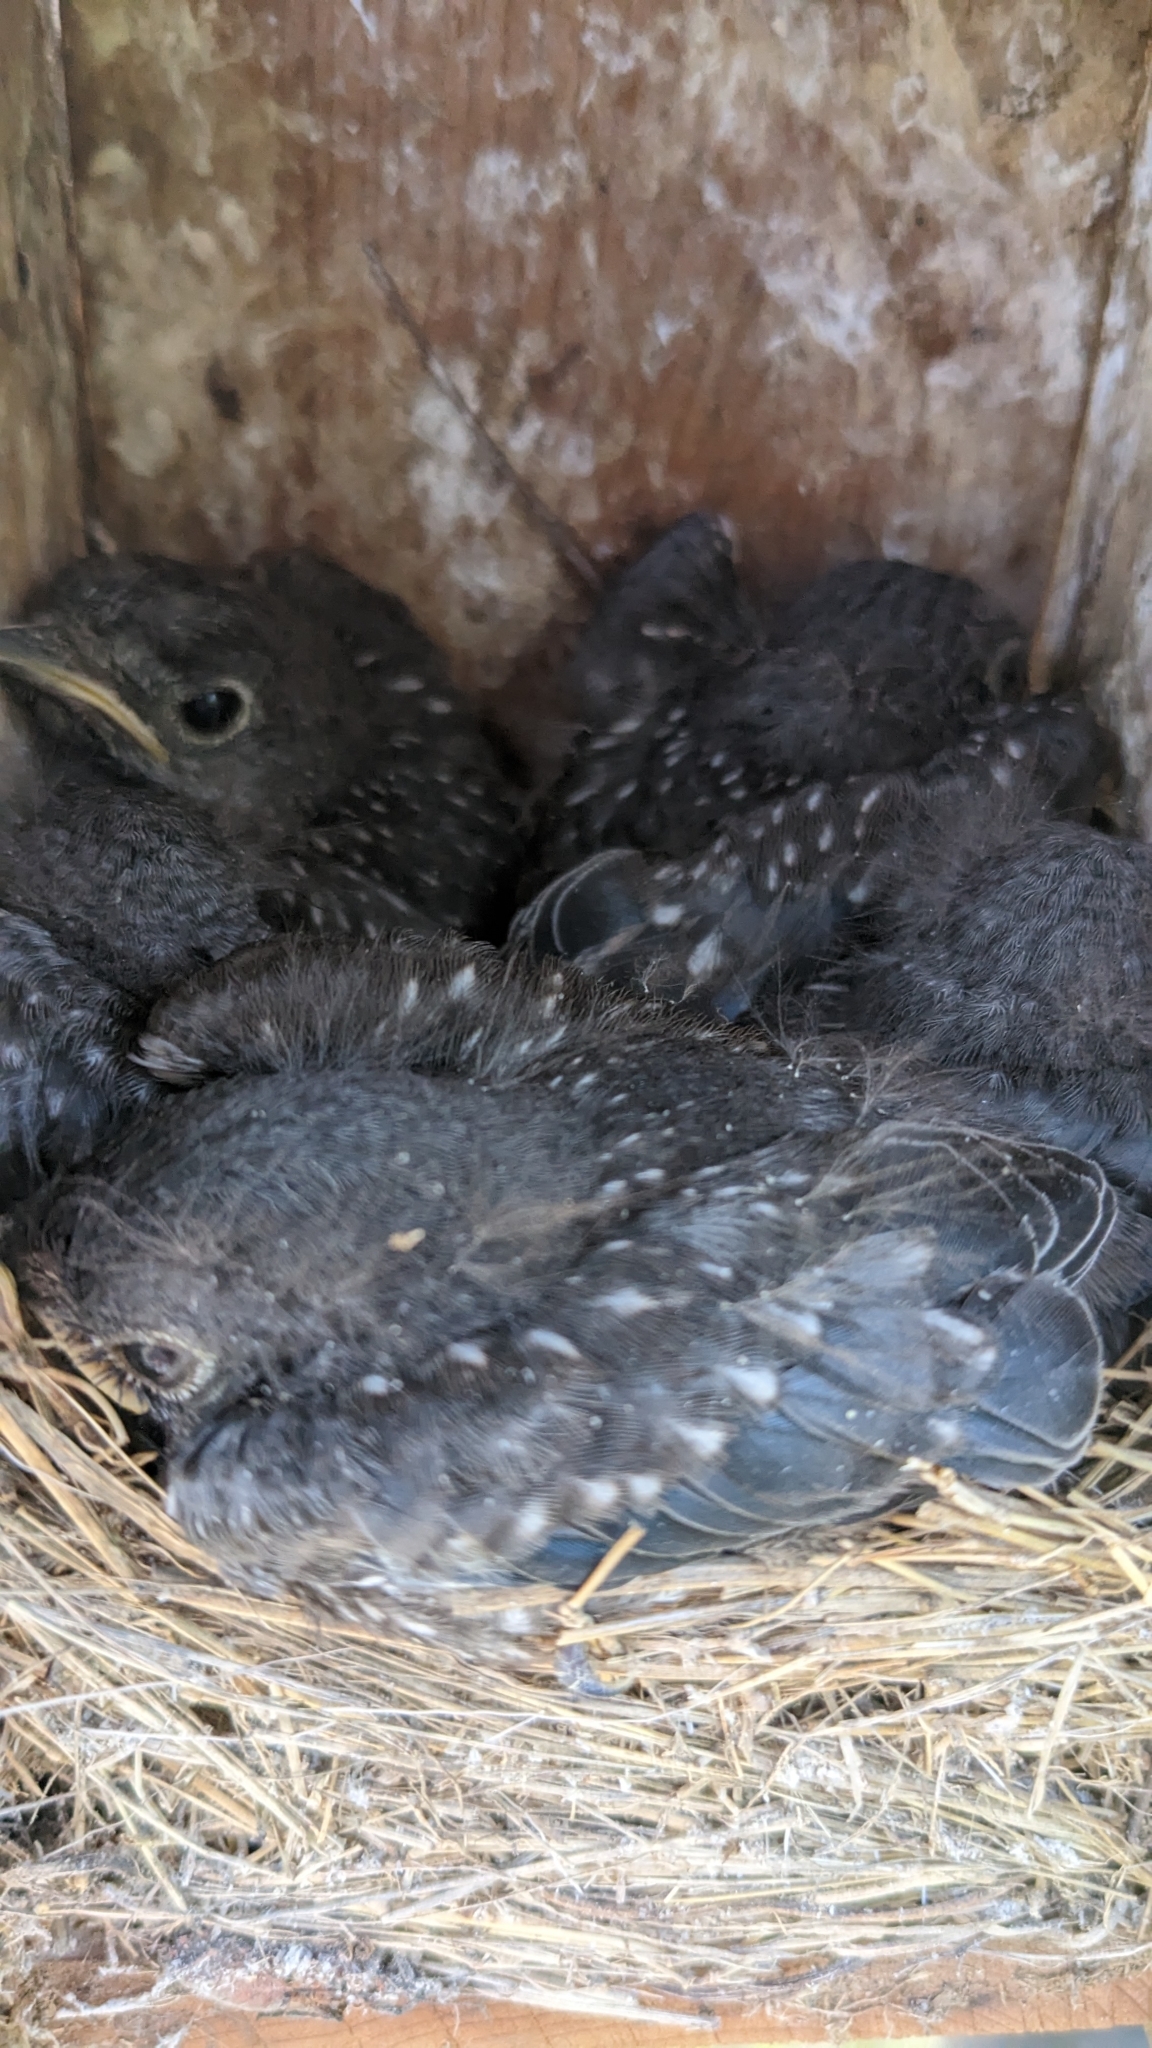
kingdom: Animalia
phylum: Chordata
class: Aves
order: Passeriformes
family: Turdidae
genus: Sialia
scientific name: Sialia sialis
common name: Eastern bluebird
